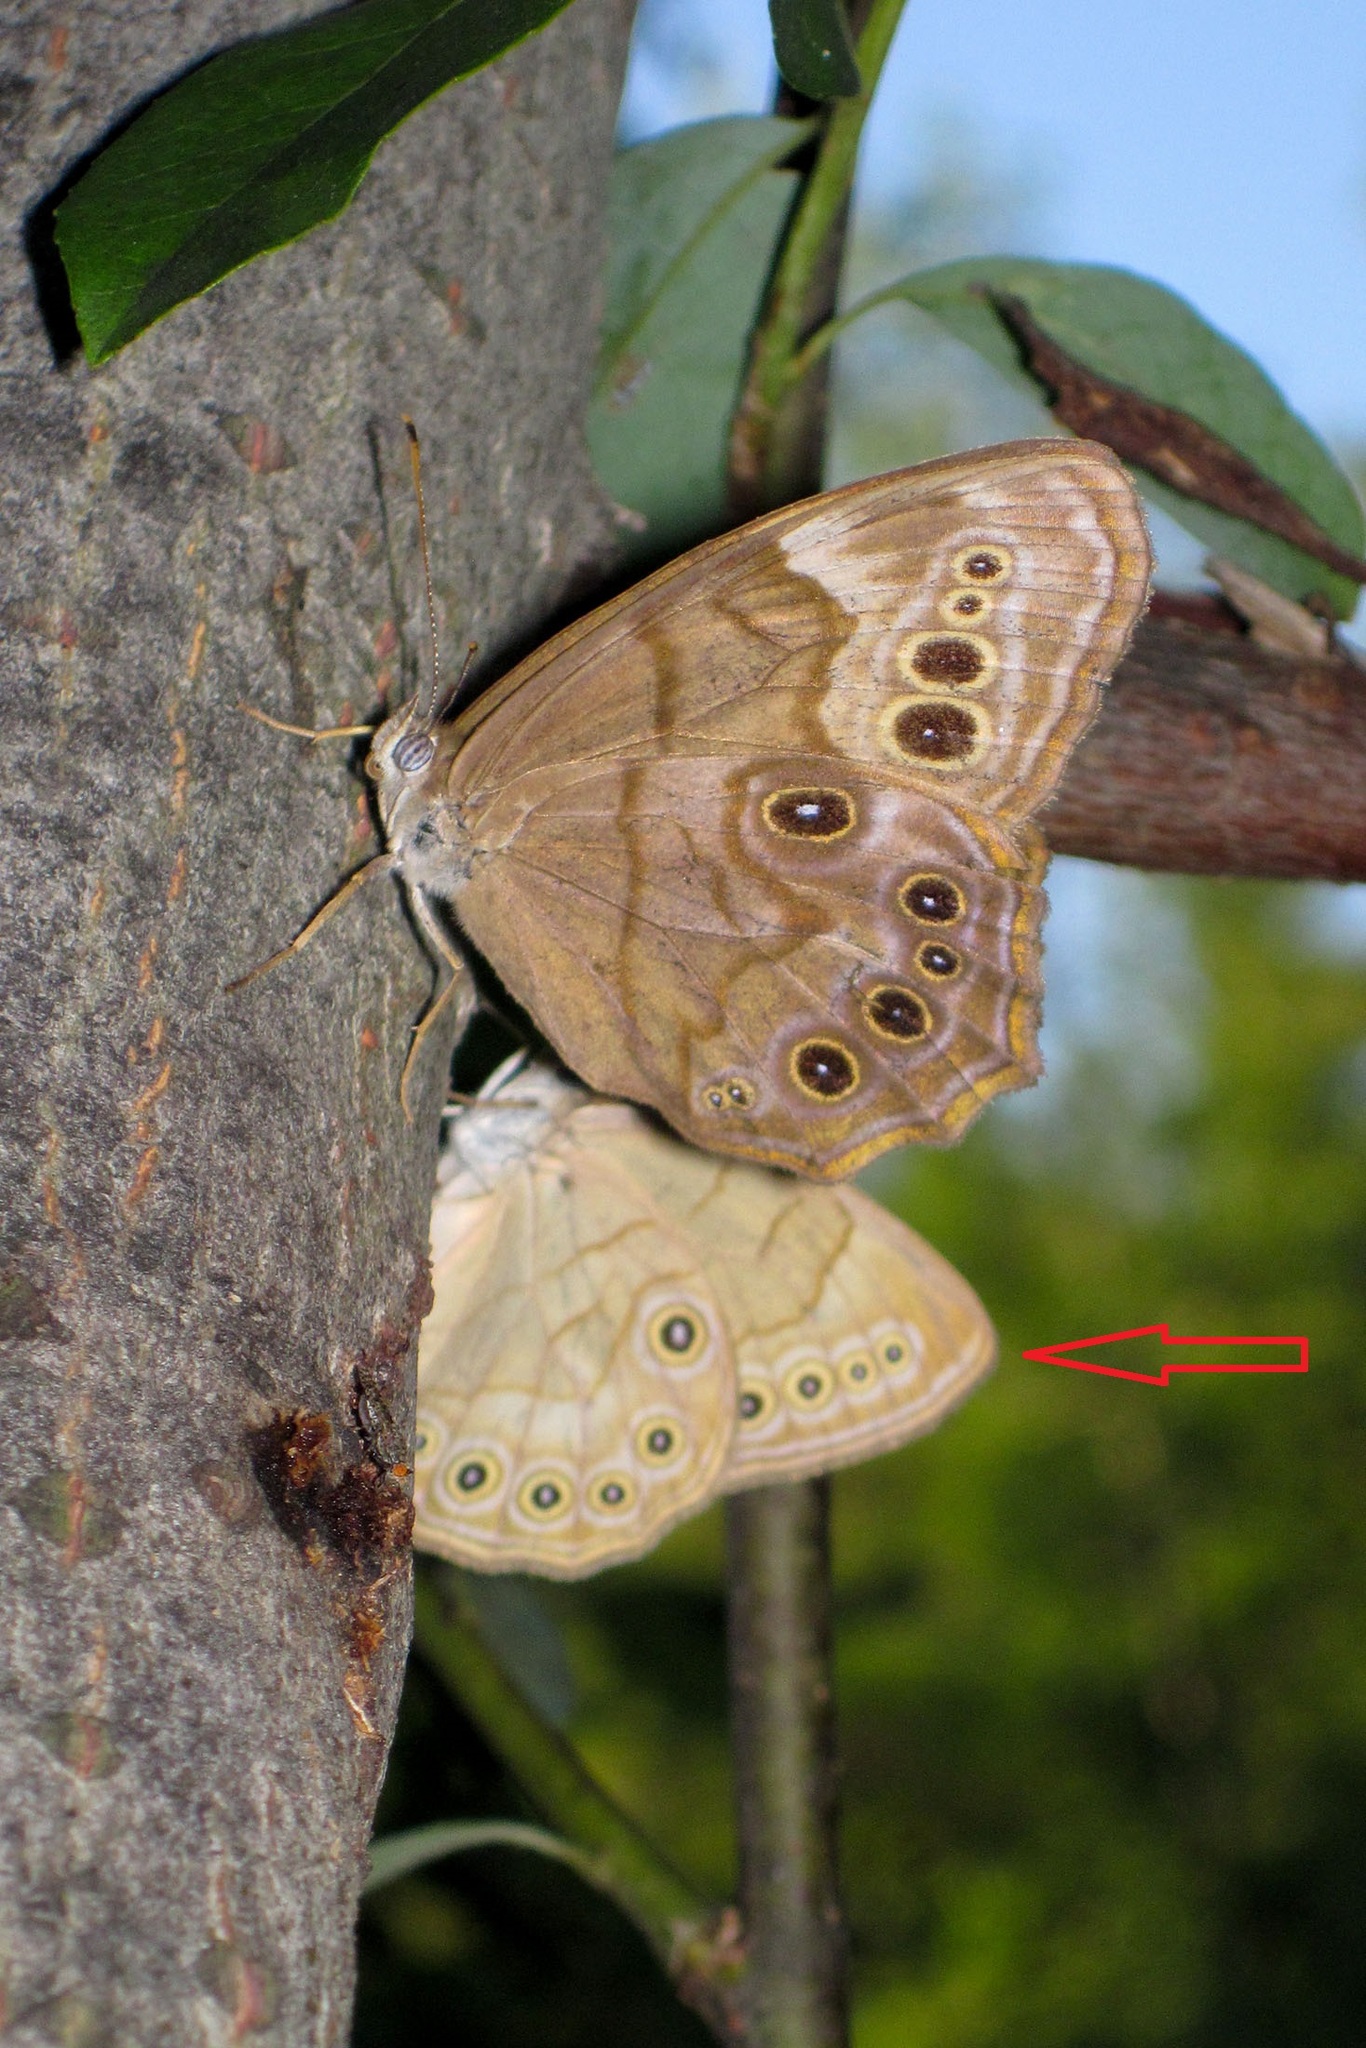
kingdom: Animalia
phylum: Arthropoda
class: Insecta
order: Lepidoptera
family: Nymphalidae
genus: Lethe
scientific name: Lethe eurydice
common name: Eyed brown
